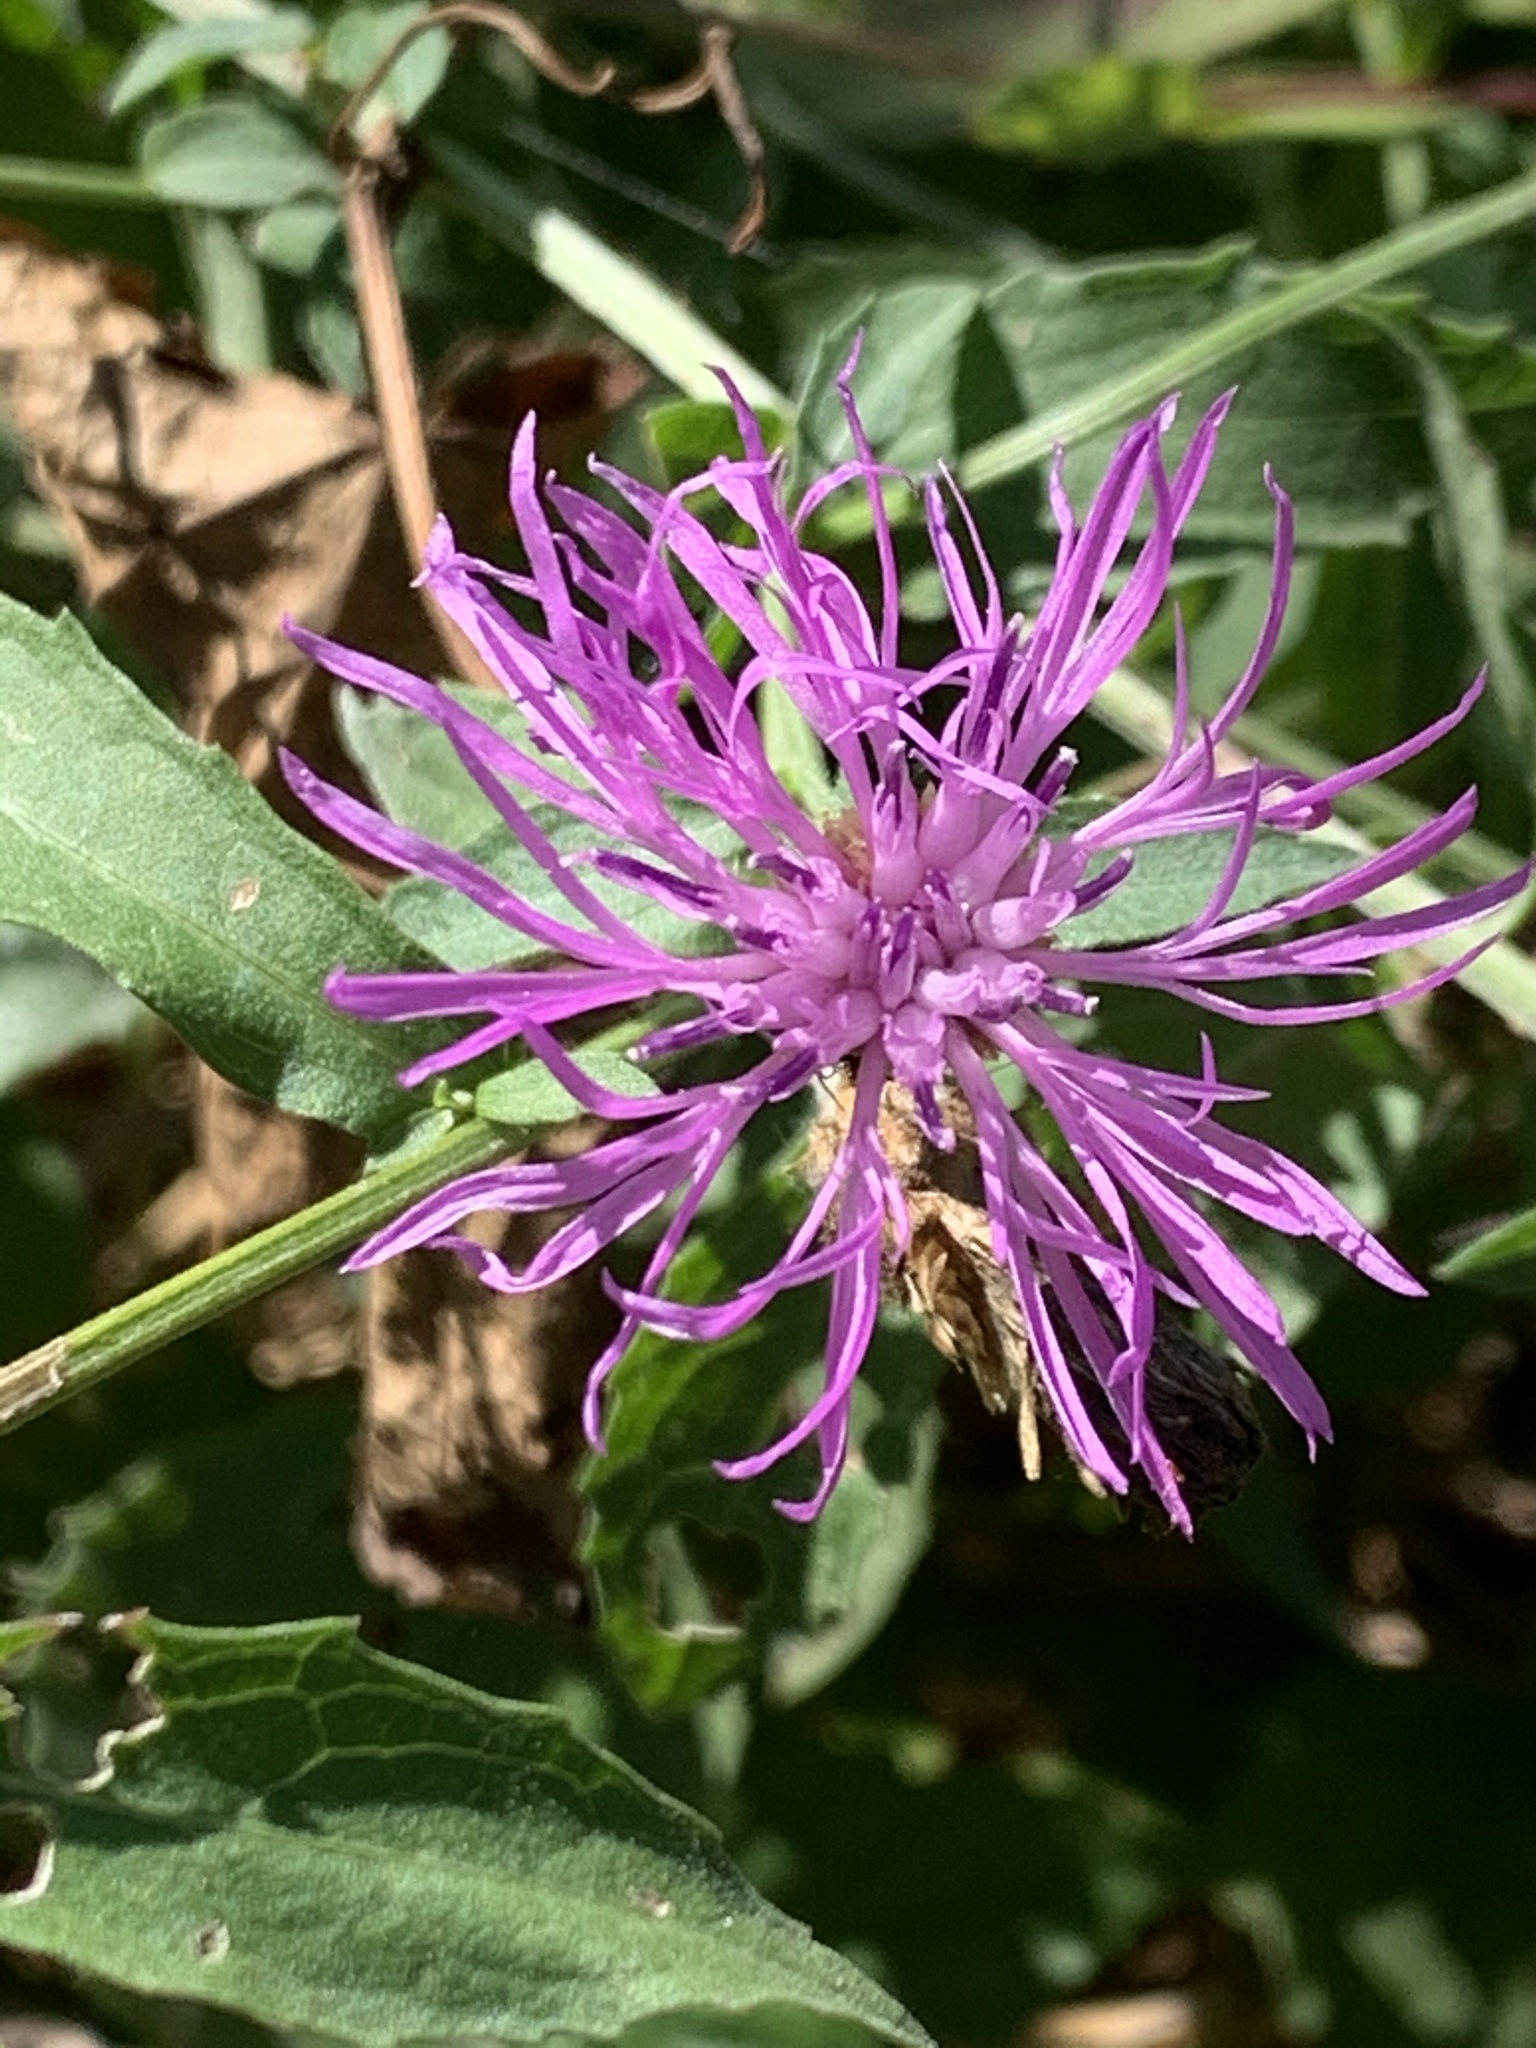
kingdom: Plantae
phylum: Tracheophyta
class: Magnoliopsida
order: Asterales
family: Asteraceae
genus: Centaurea
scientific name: Centaurea nigrescens
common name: Tyrol knapweed
